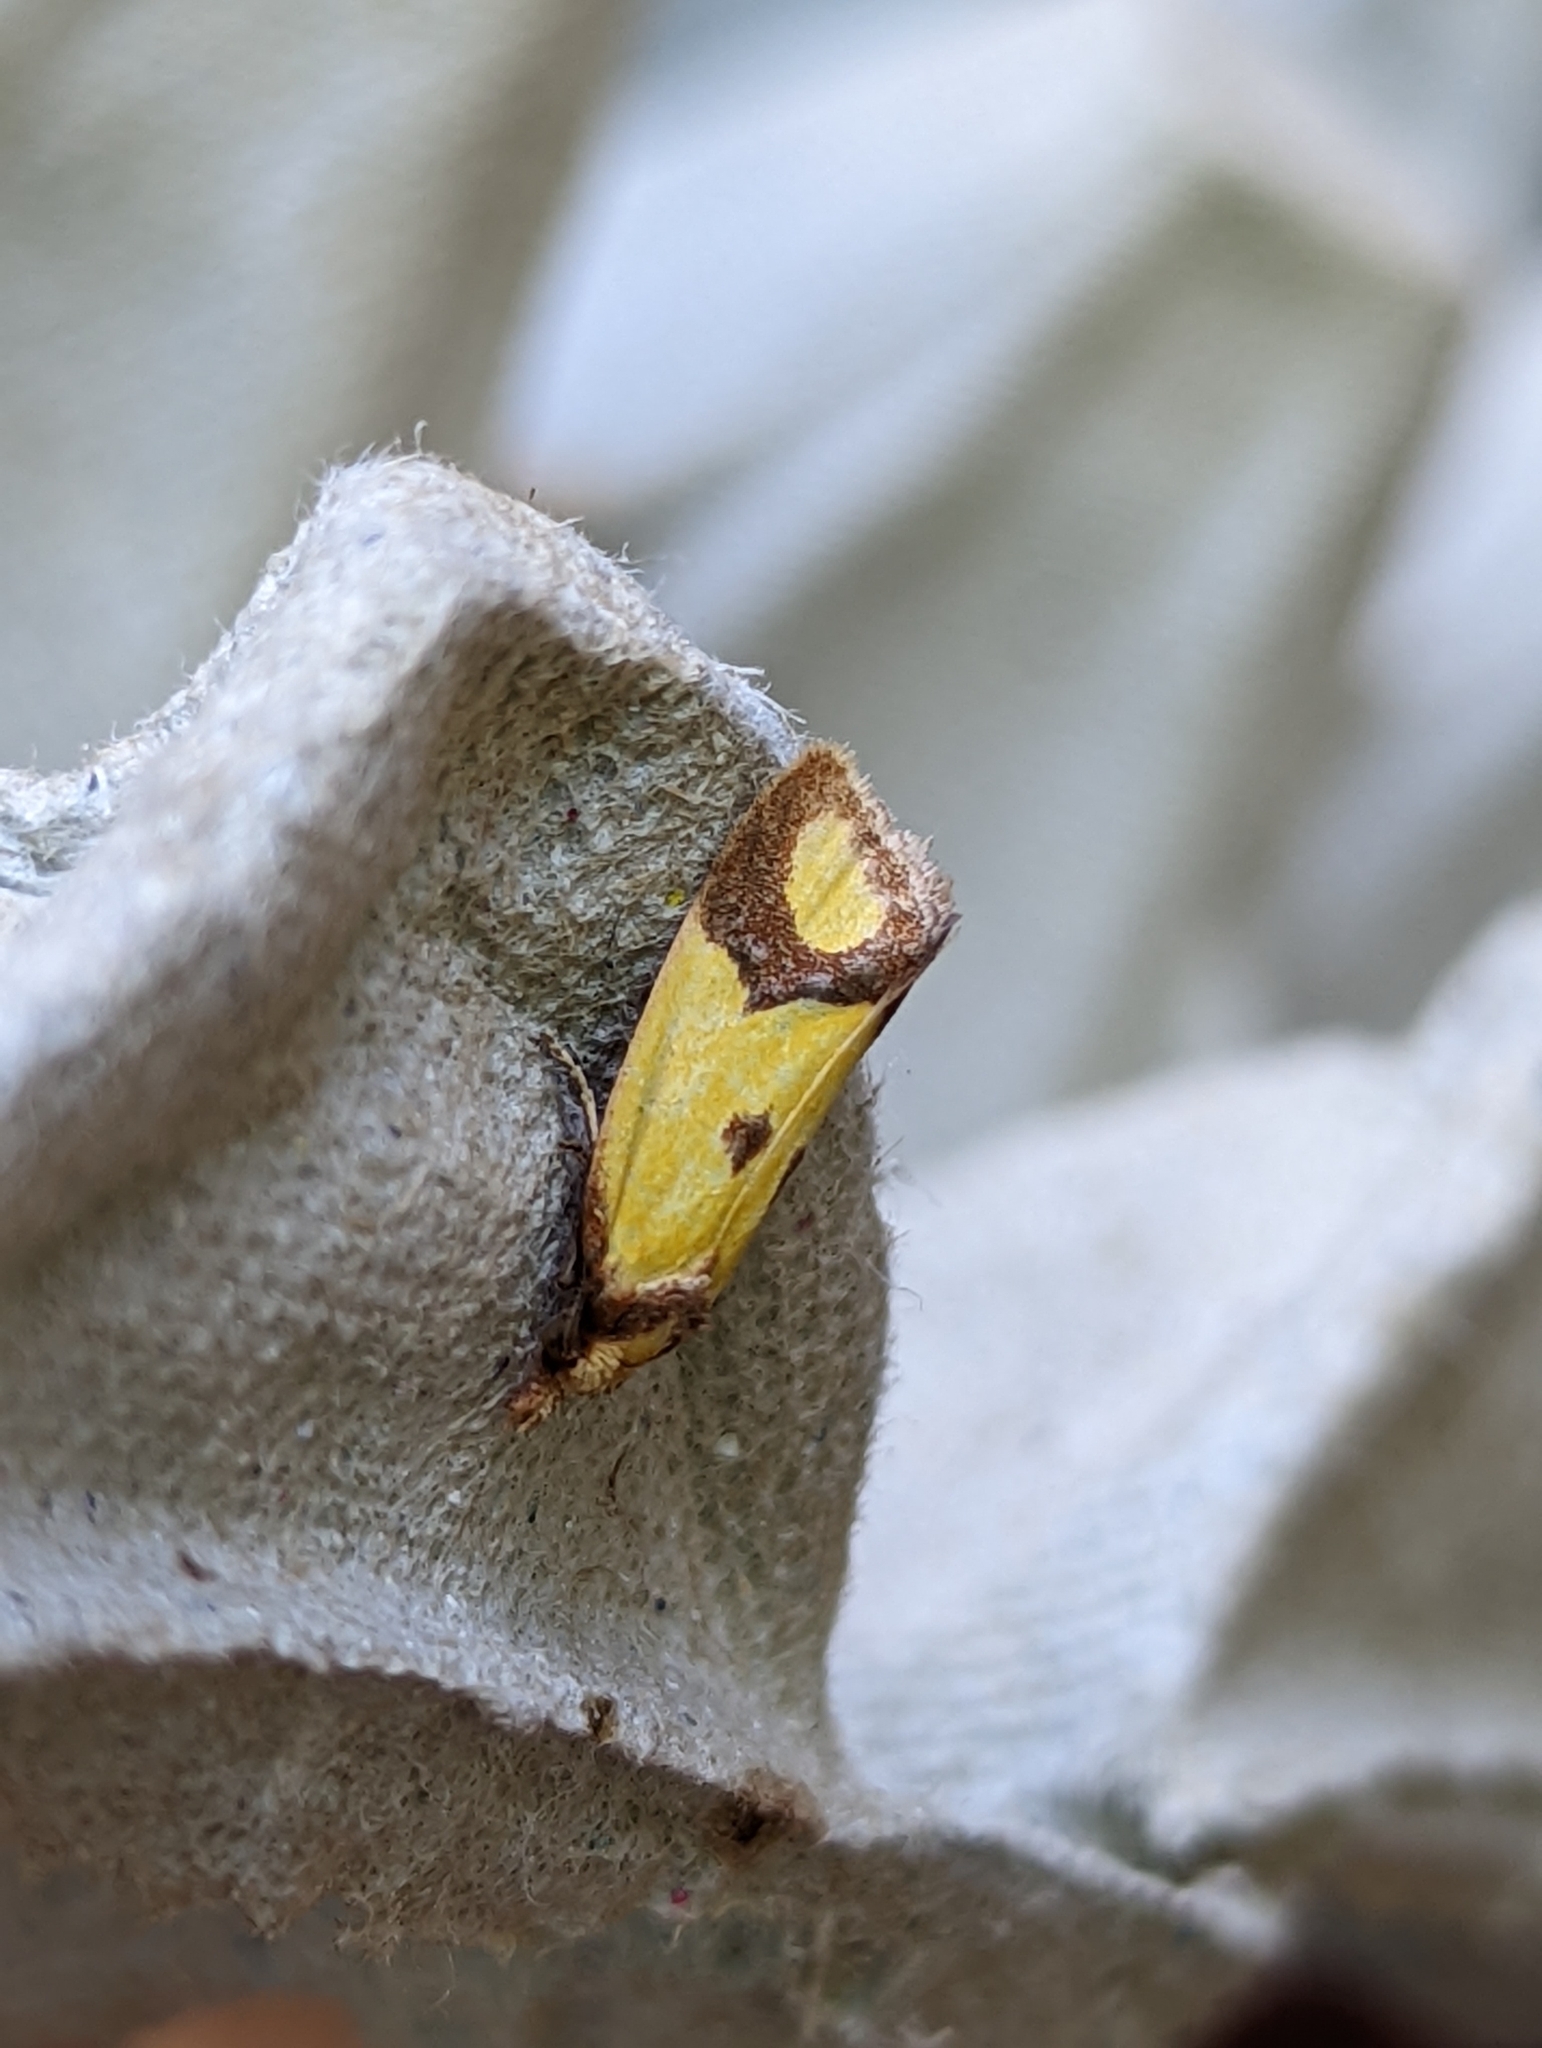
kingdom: Animalia
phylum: Arthropoda
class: Insecta
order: Lepidoptera
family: Tortricidae
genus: Agapeta
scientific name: Agapeta zoegana
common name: Sulfur knapweed root moth
